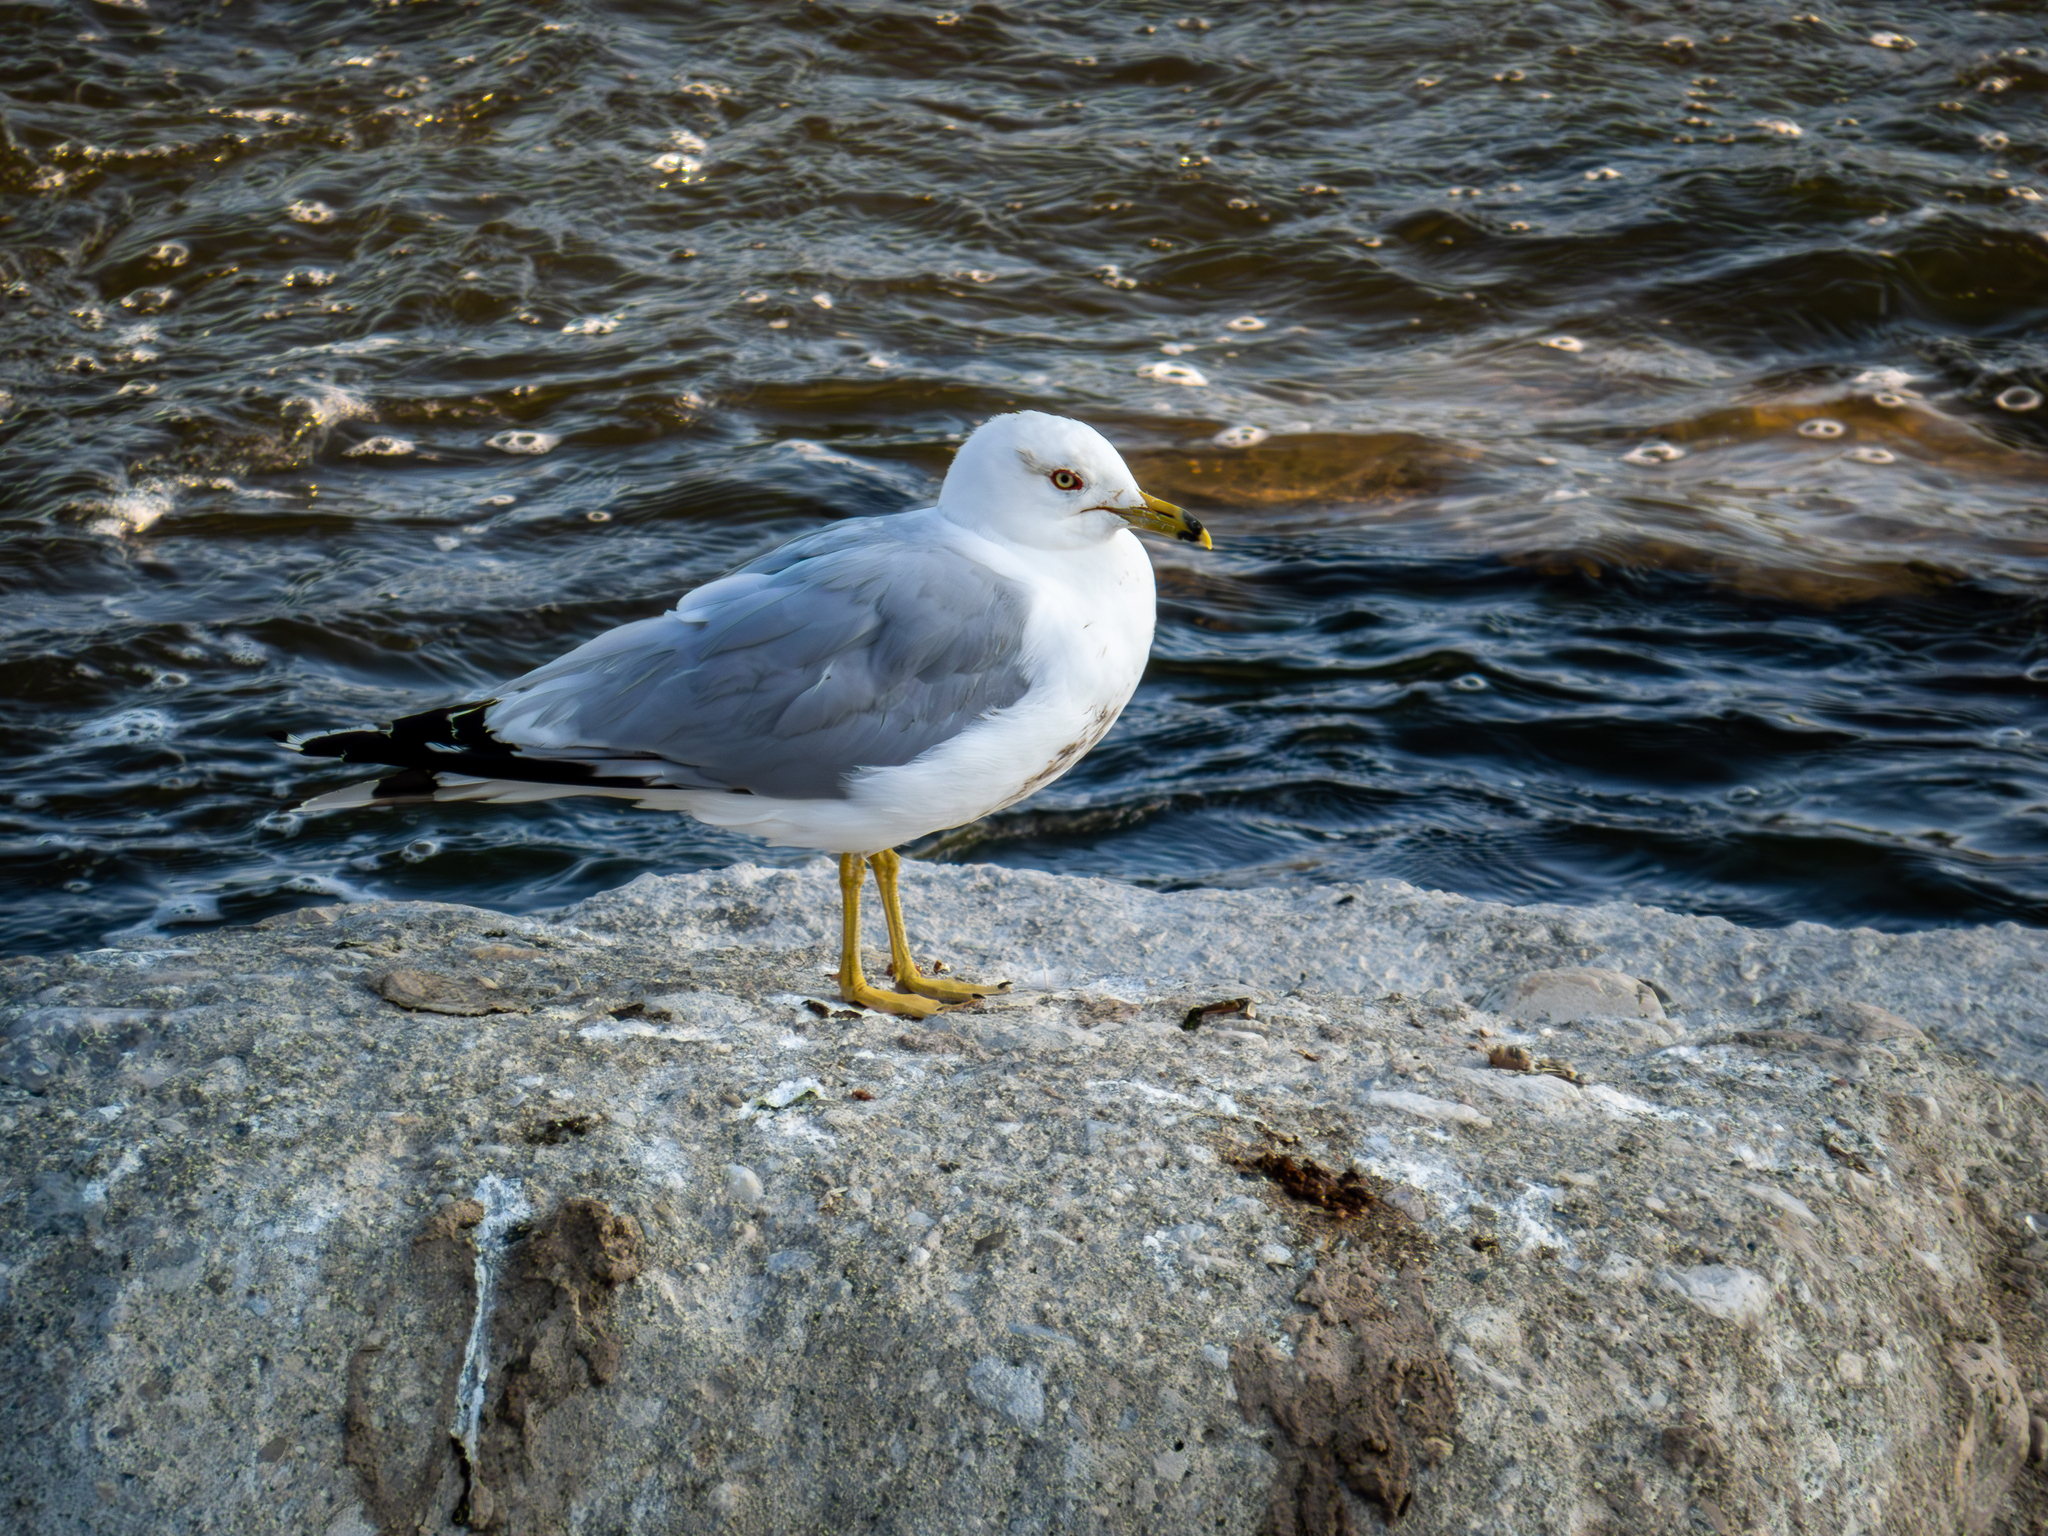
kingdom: Animalia
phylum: Chordata
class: Aves
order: Charadriiformes
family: Laridae
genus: Larus
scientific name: Larus delawarensis
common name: Ring-billed gull
